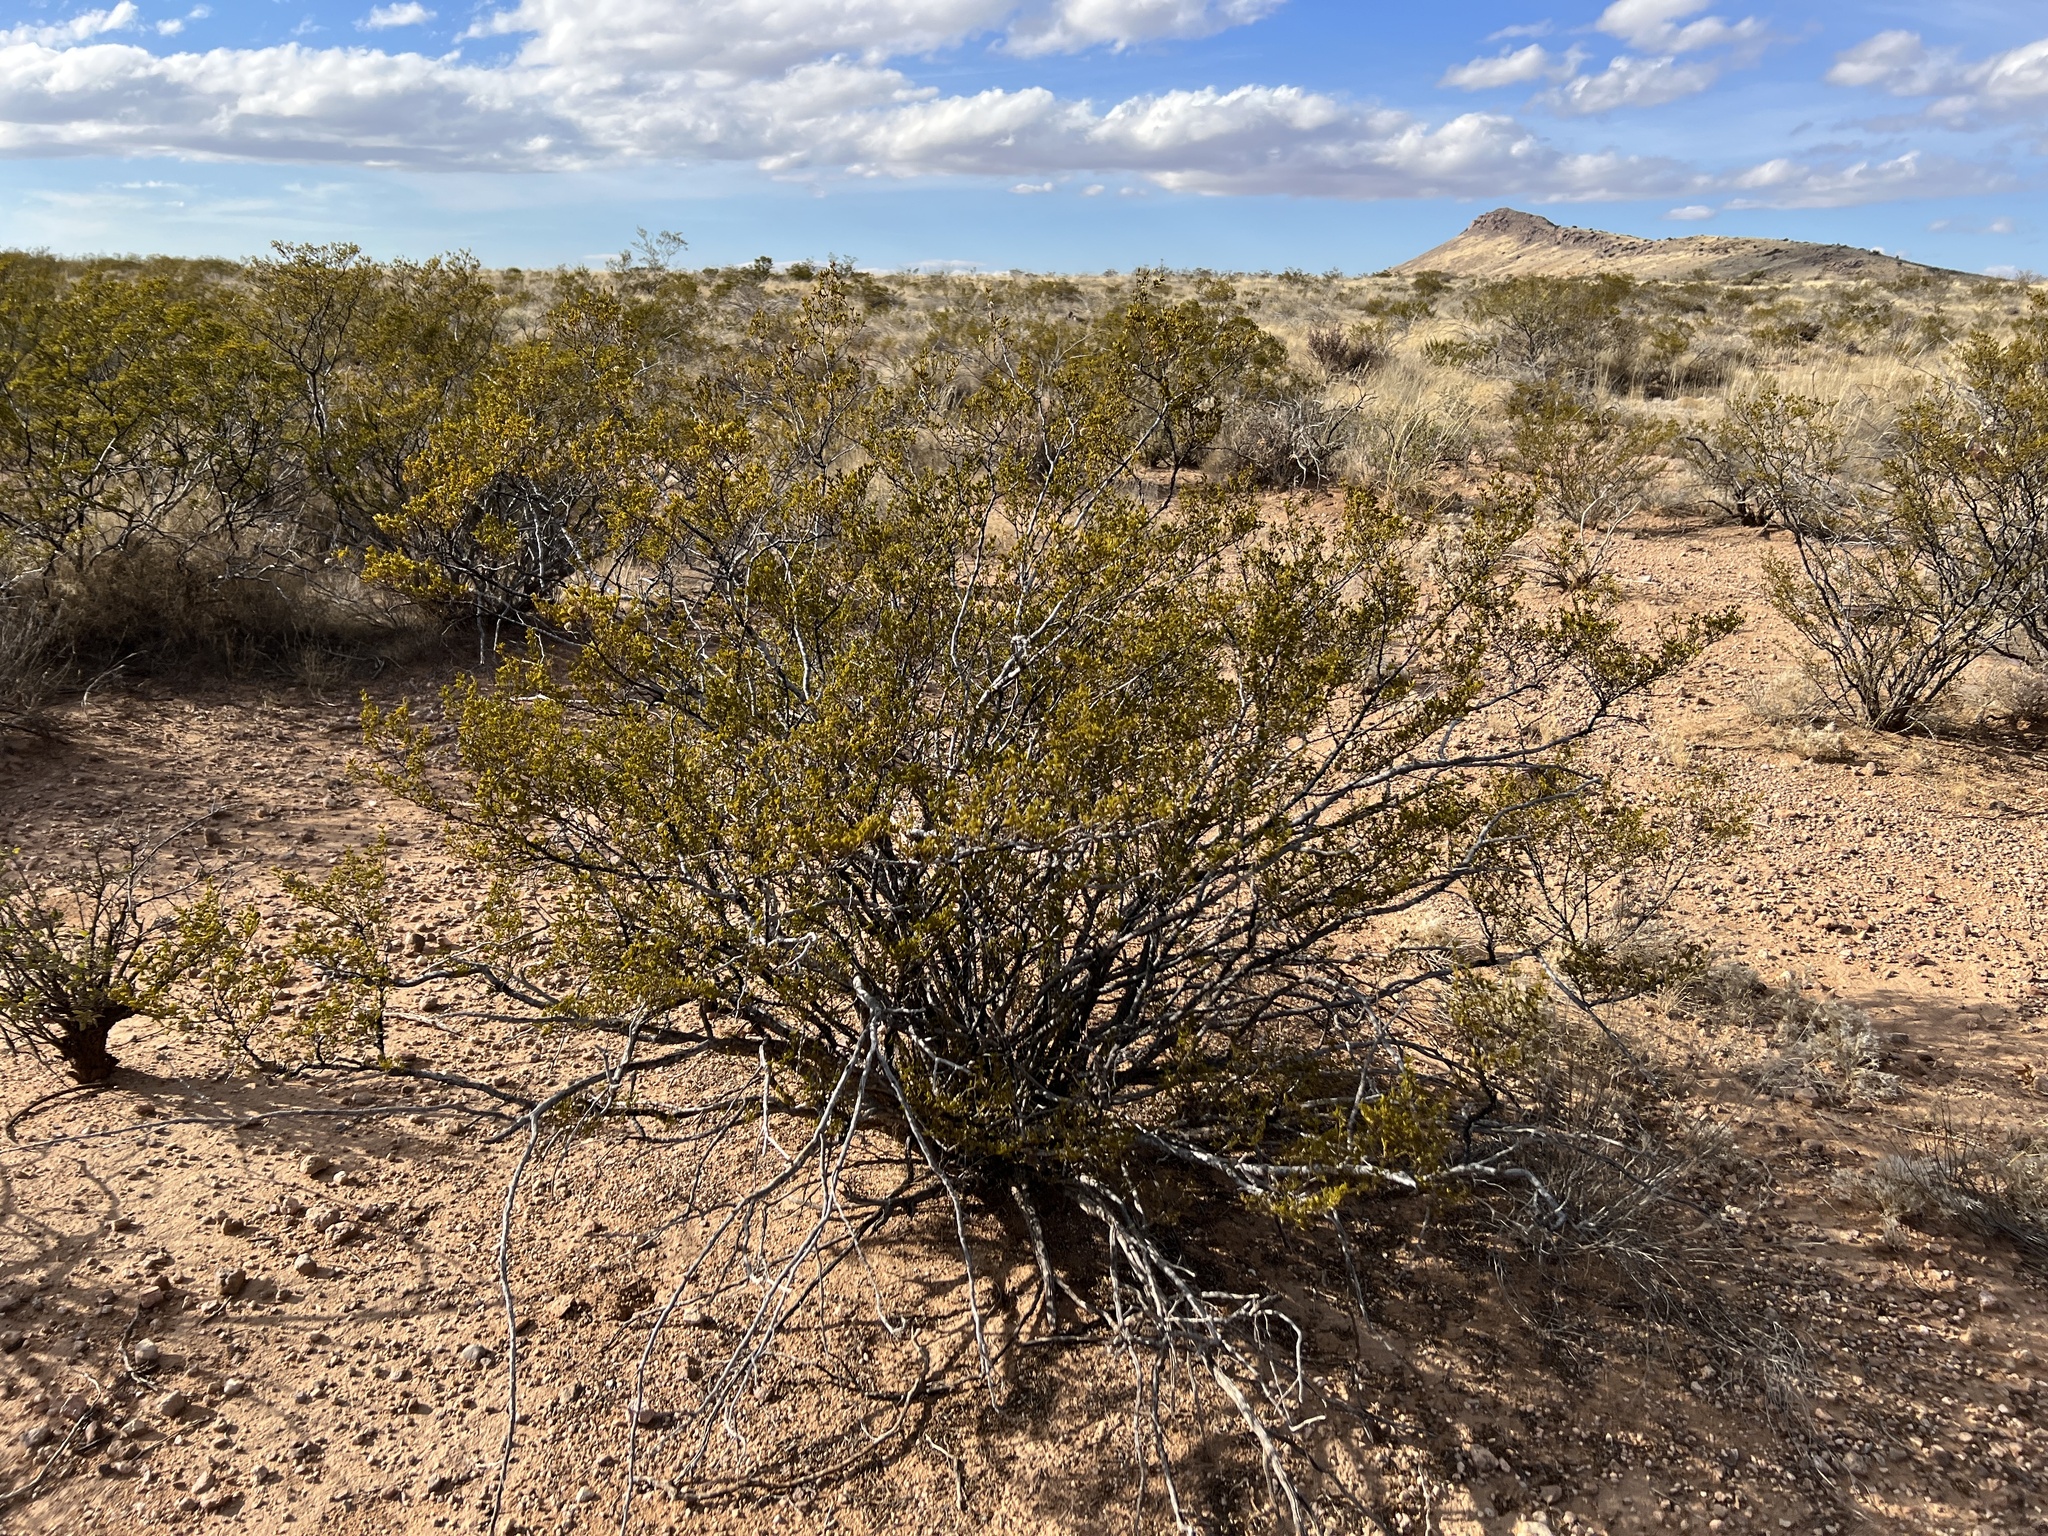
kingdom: Plantae
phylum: Tracheophyta
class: Magnoliopsida
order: Zygophyllales
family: Zygophyllaceae
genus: Larrea
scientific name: Larrea tridentata
